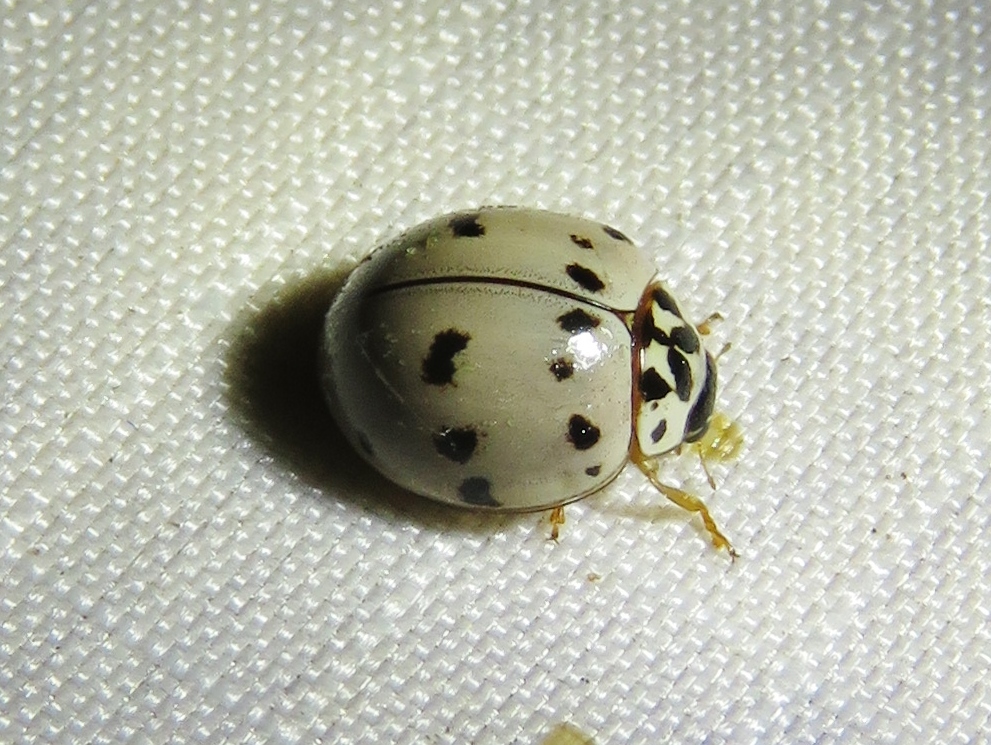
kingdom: Animalia
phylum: Arthropoda
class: Insecta
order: Coleoptera
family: Coccinellidae
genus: Olla
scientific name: Olla v-nigrum
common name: Ashy gray lady beetle
